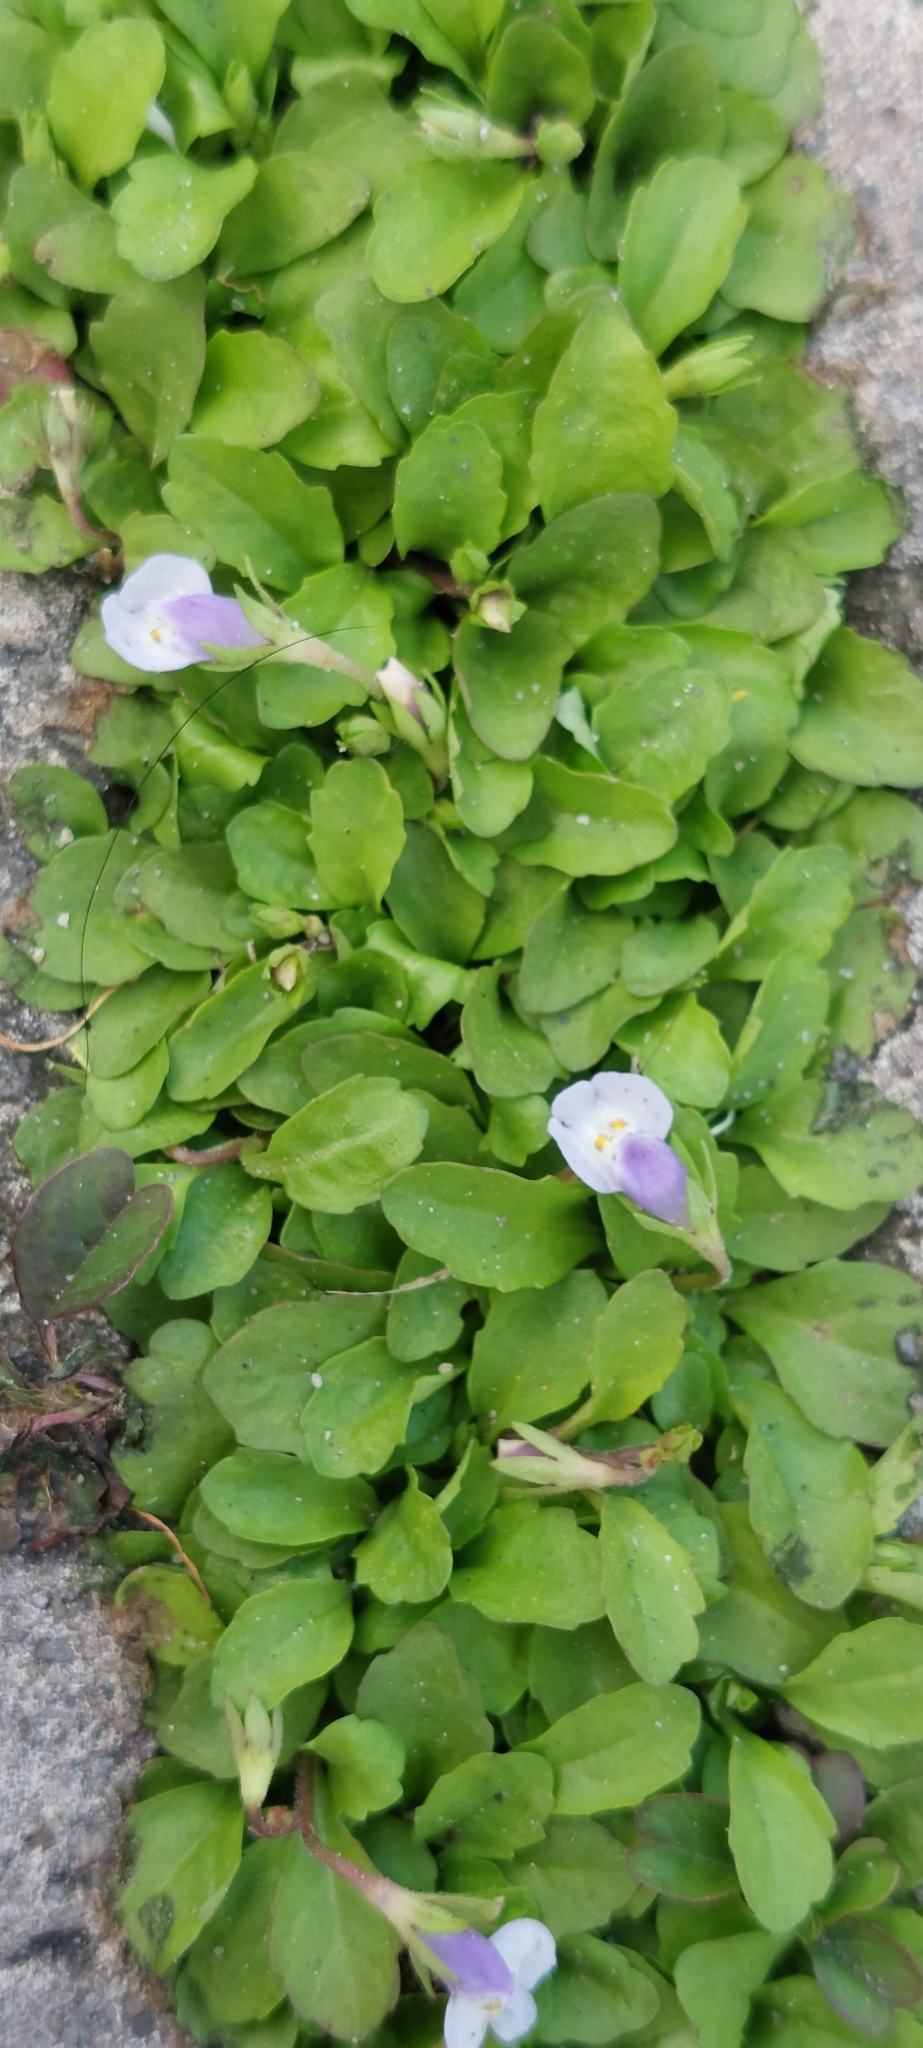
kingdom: Plantae
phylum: Tracheophyta
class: Magnoliopsida
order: Lamiales
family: Mazaceae
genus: Mazus
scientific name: Mazus pumilus
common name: Japanese mazus
